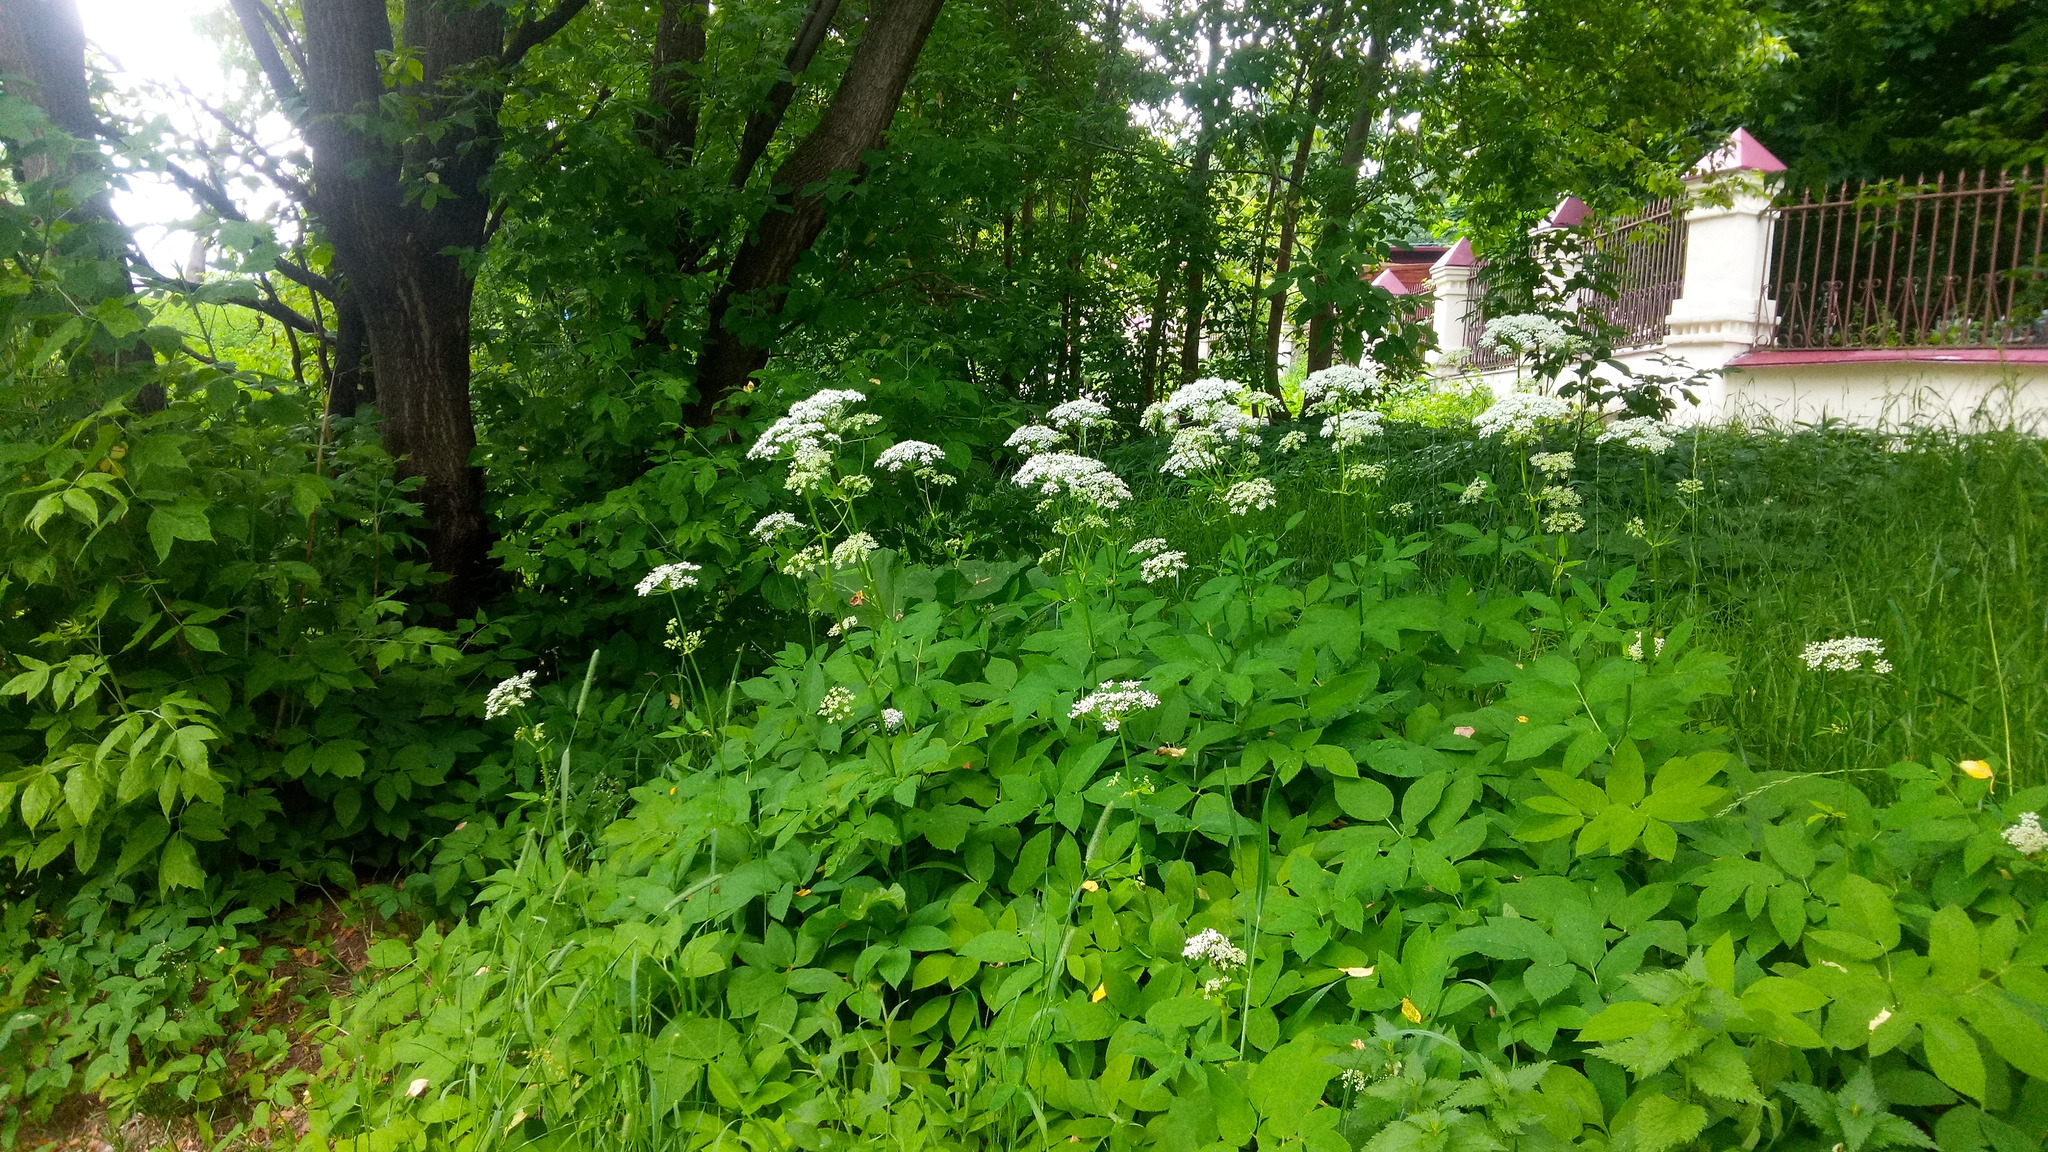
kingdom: Plantae
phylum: Tracheophyta
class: Magnoliopsida
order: Apiales
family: Apiaceae
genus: Aegopodium
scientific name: Aegopodium podagraria
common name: Ground-elder
